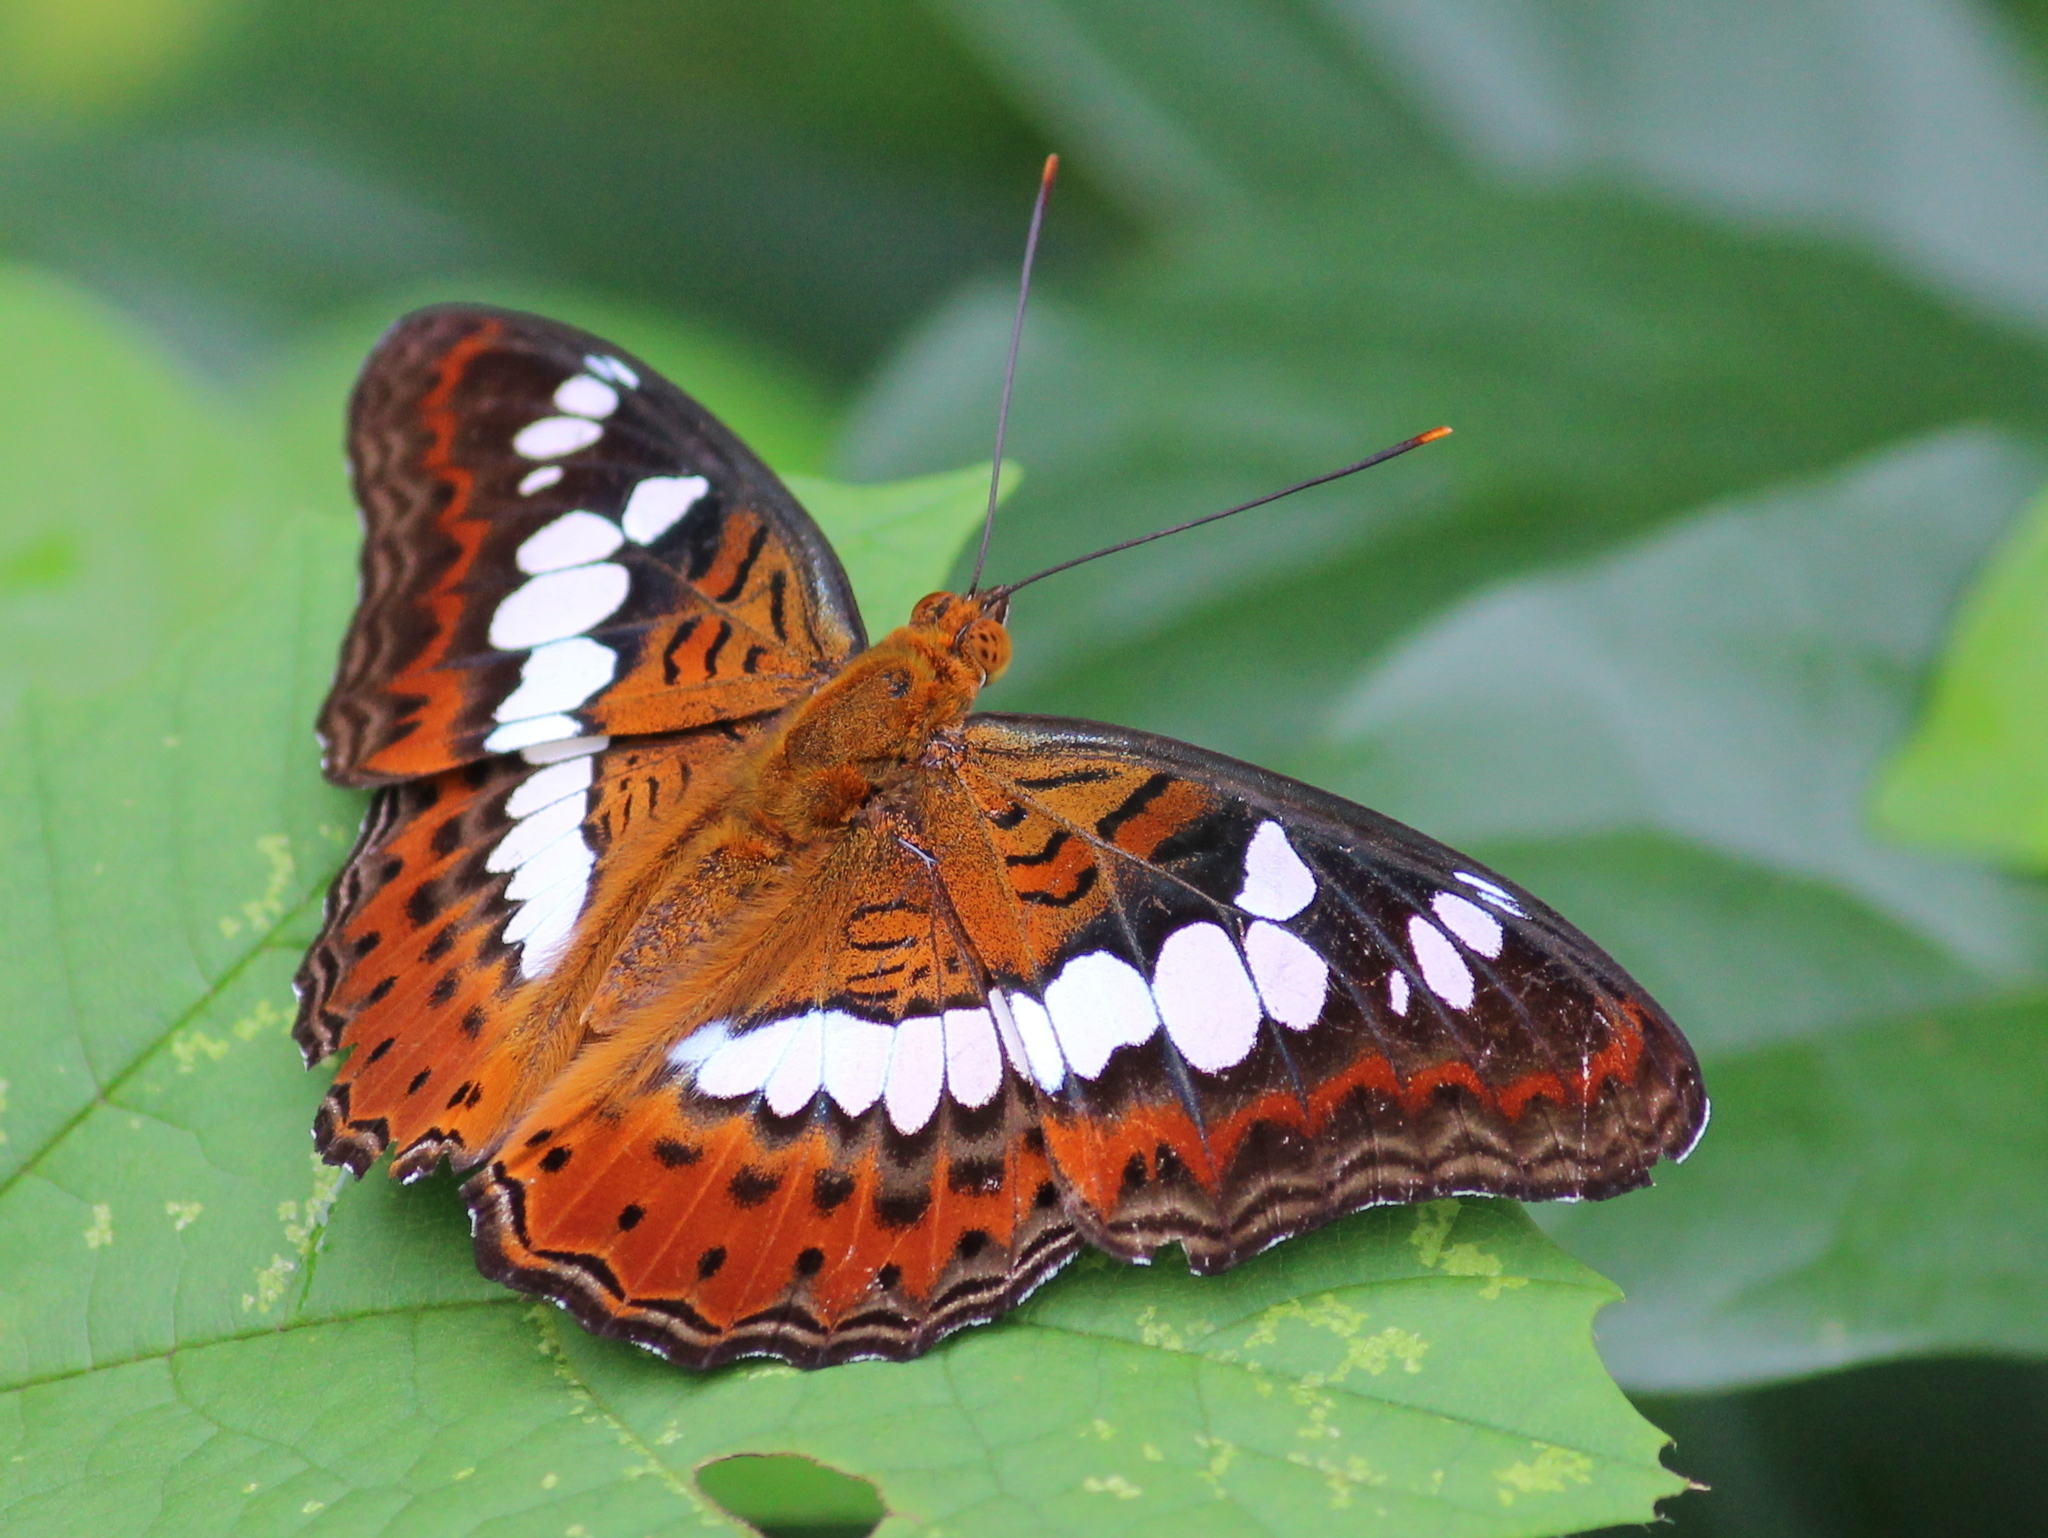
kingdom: Animalia
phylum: Arthropoda
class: Insecta
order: Lepidoptera
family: Nymphalidae
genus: Limenitis
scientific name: Limenitis Moduza procris
